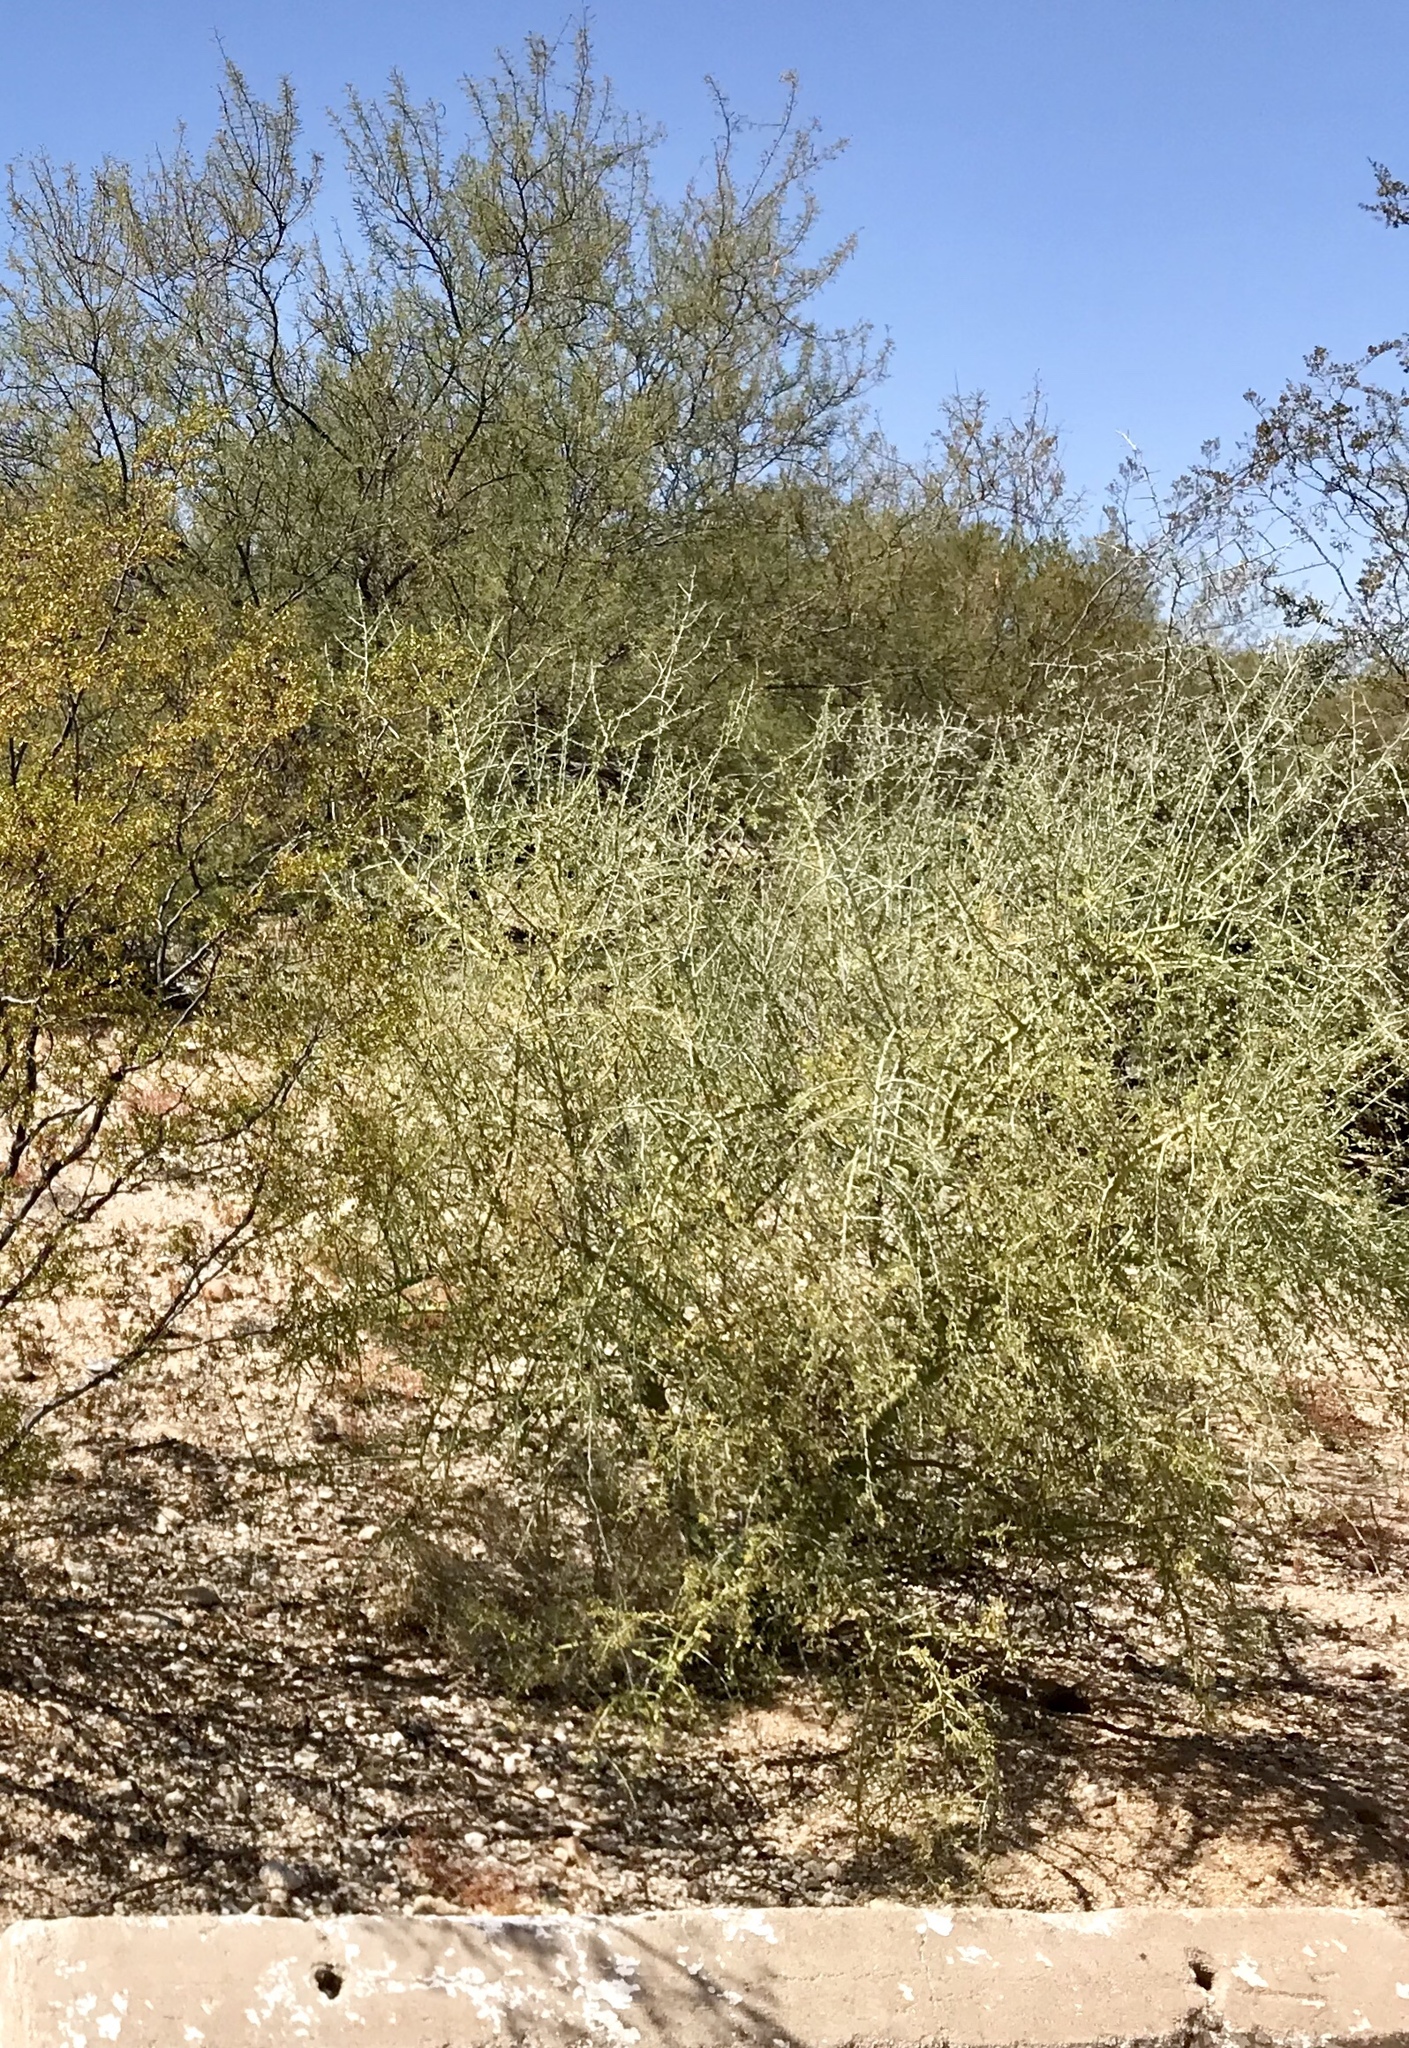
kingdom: Plantae
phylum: Tracheophyta
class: Magnoliopsida
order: Fabales
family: Fabaceae
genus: Parkinsonia
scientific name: Parkinsonia microphylla
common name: Yellow paloverde
